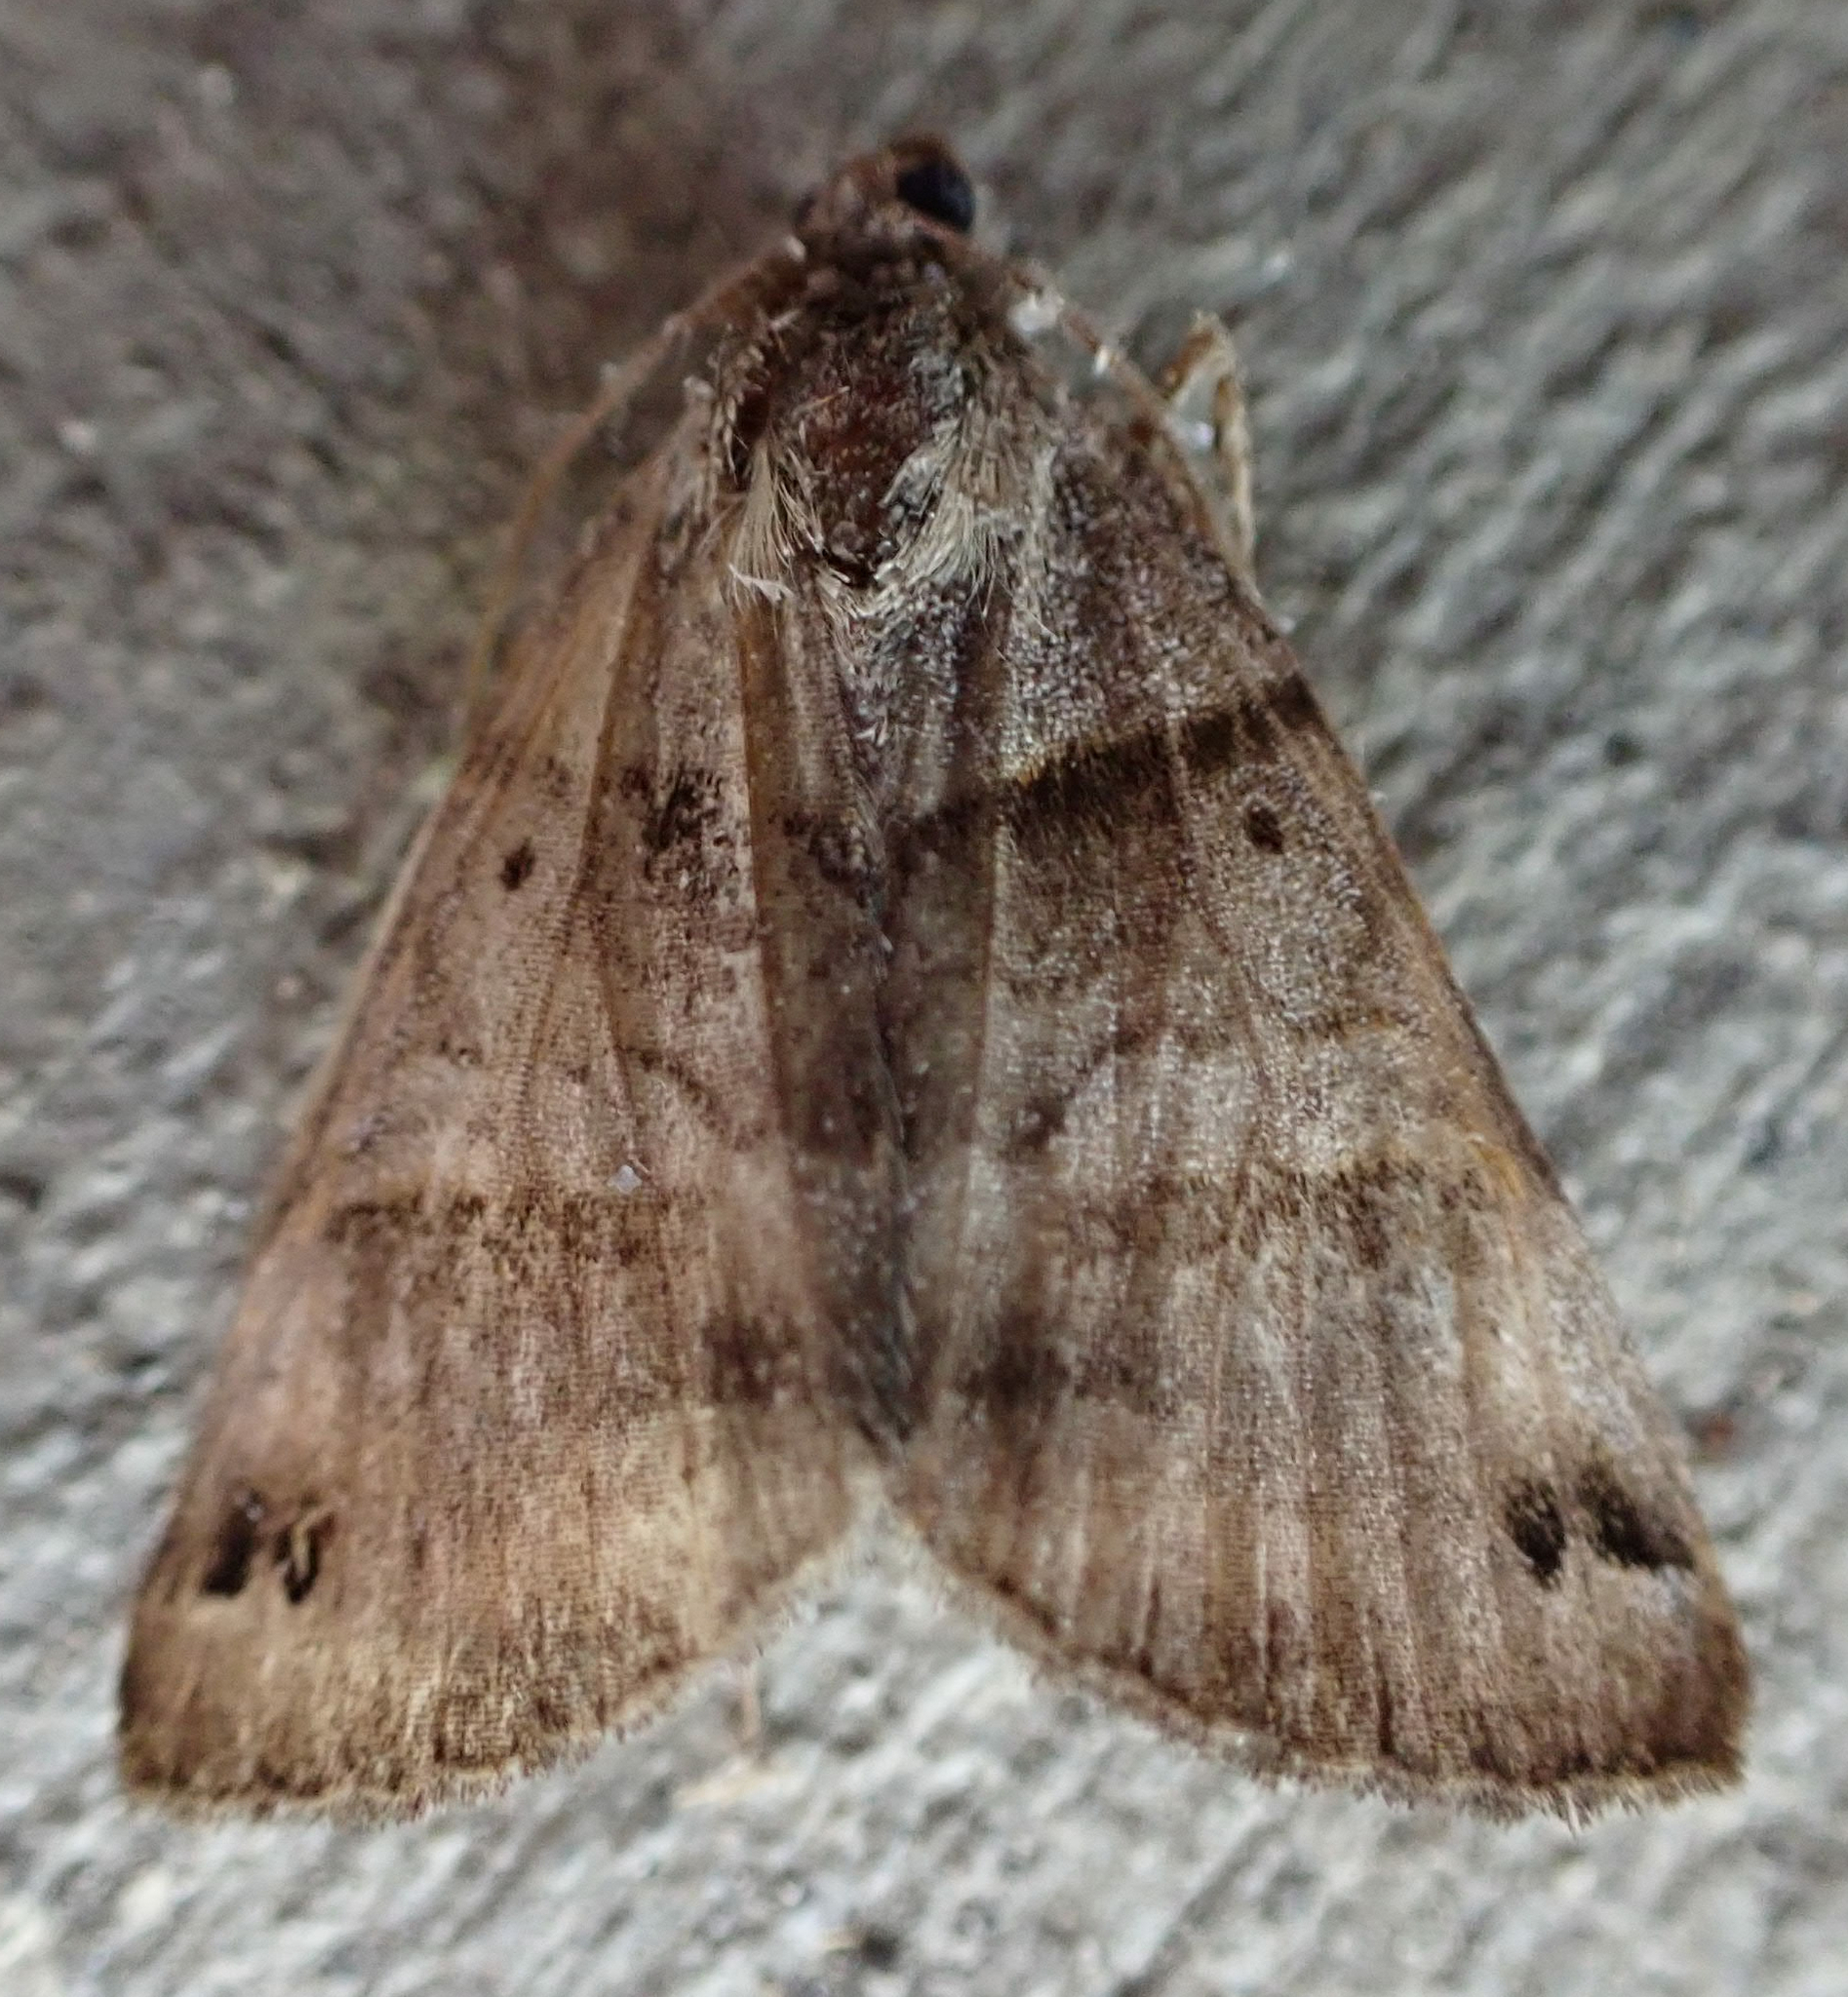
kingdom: Animalia
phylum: Arthropoda
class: Insecta
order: Lepidoptera
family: Erebidae
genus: Caenurgina
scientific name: Caenurgina erechtea
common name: Forage looper moth
